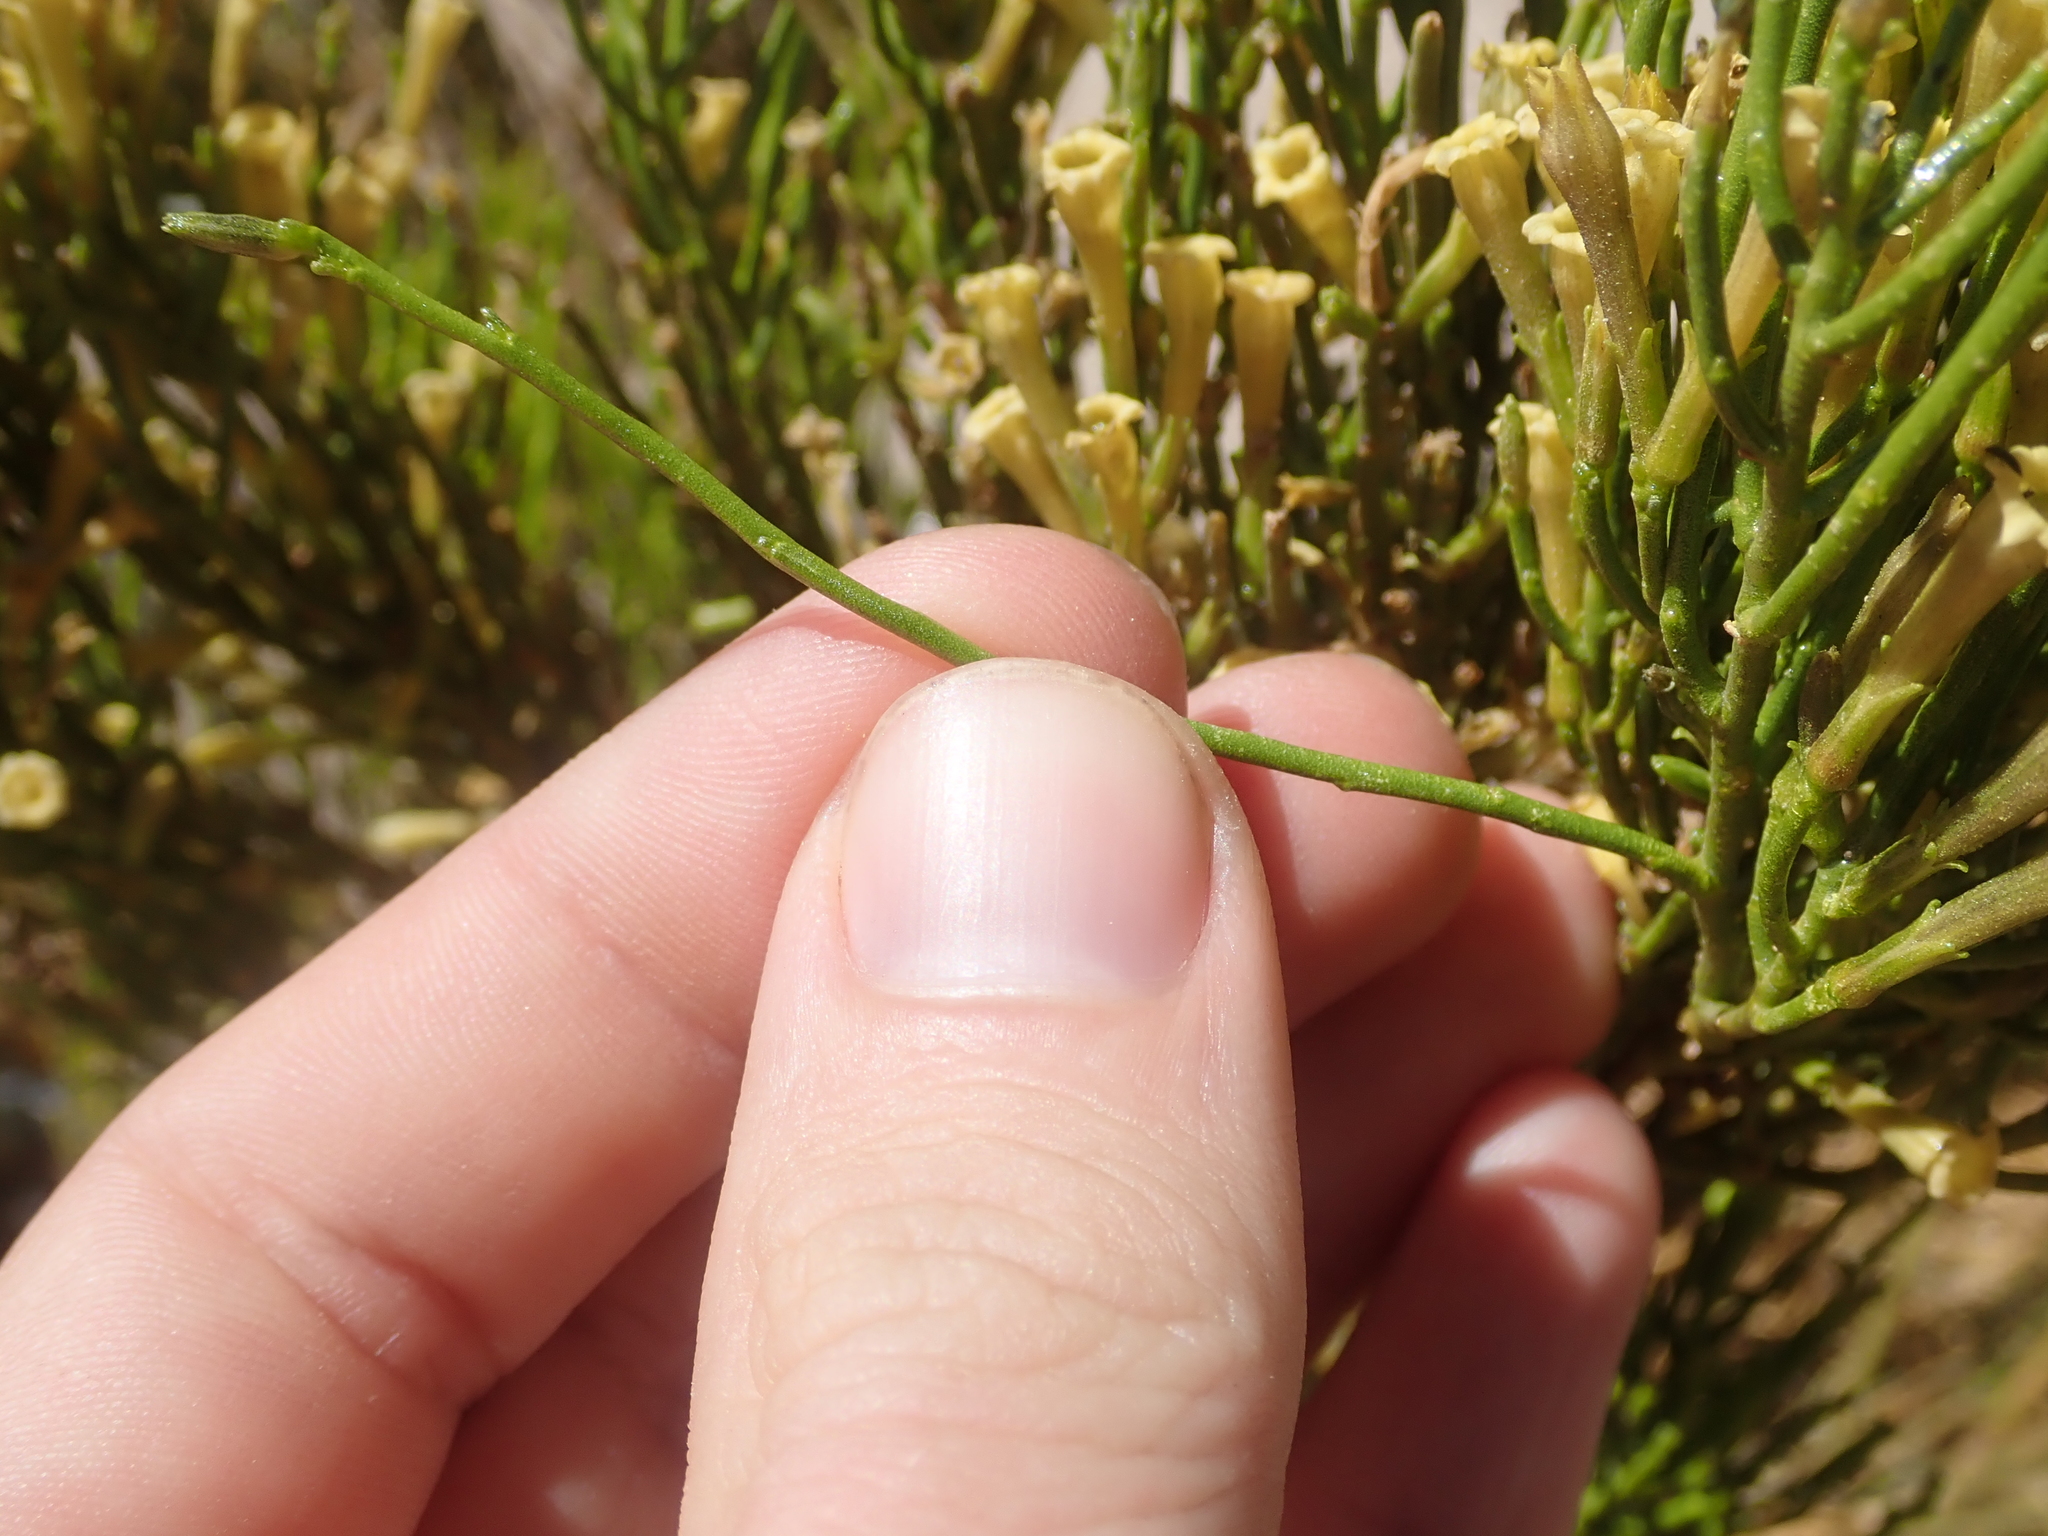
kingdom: Plantae
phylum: Tracheophyta
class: Magnoliopsida
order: Solanales
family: Solanaceae
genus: Fabiana
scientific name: Fabiana denudata
